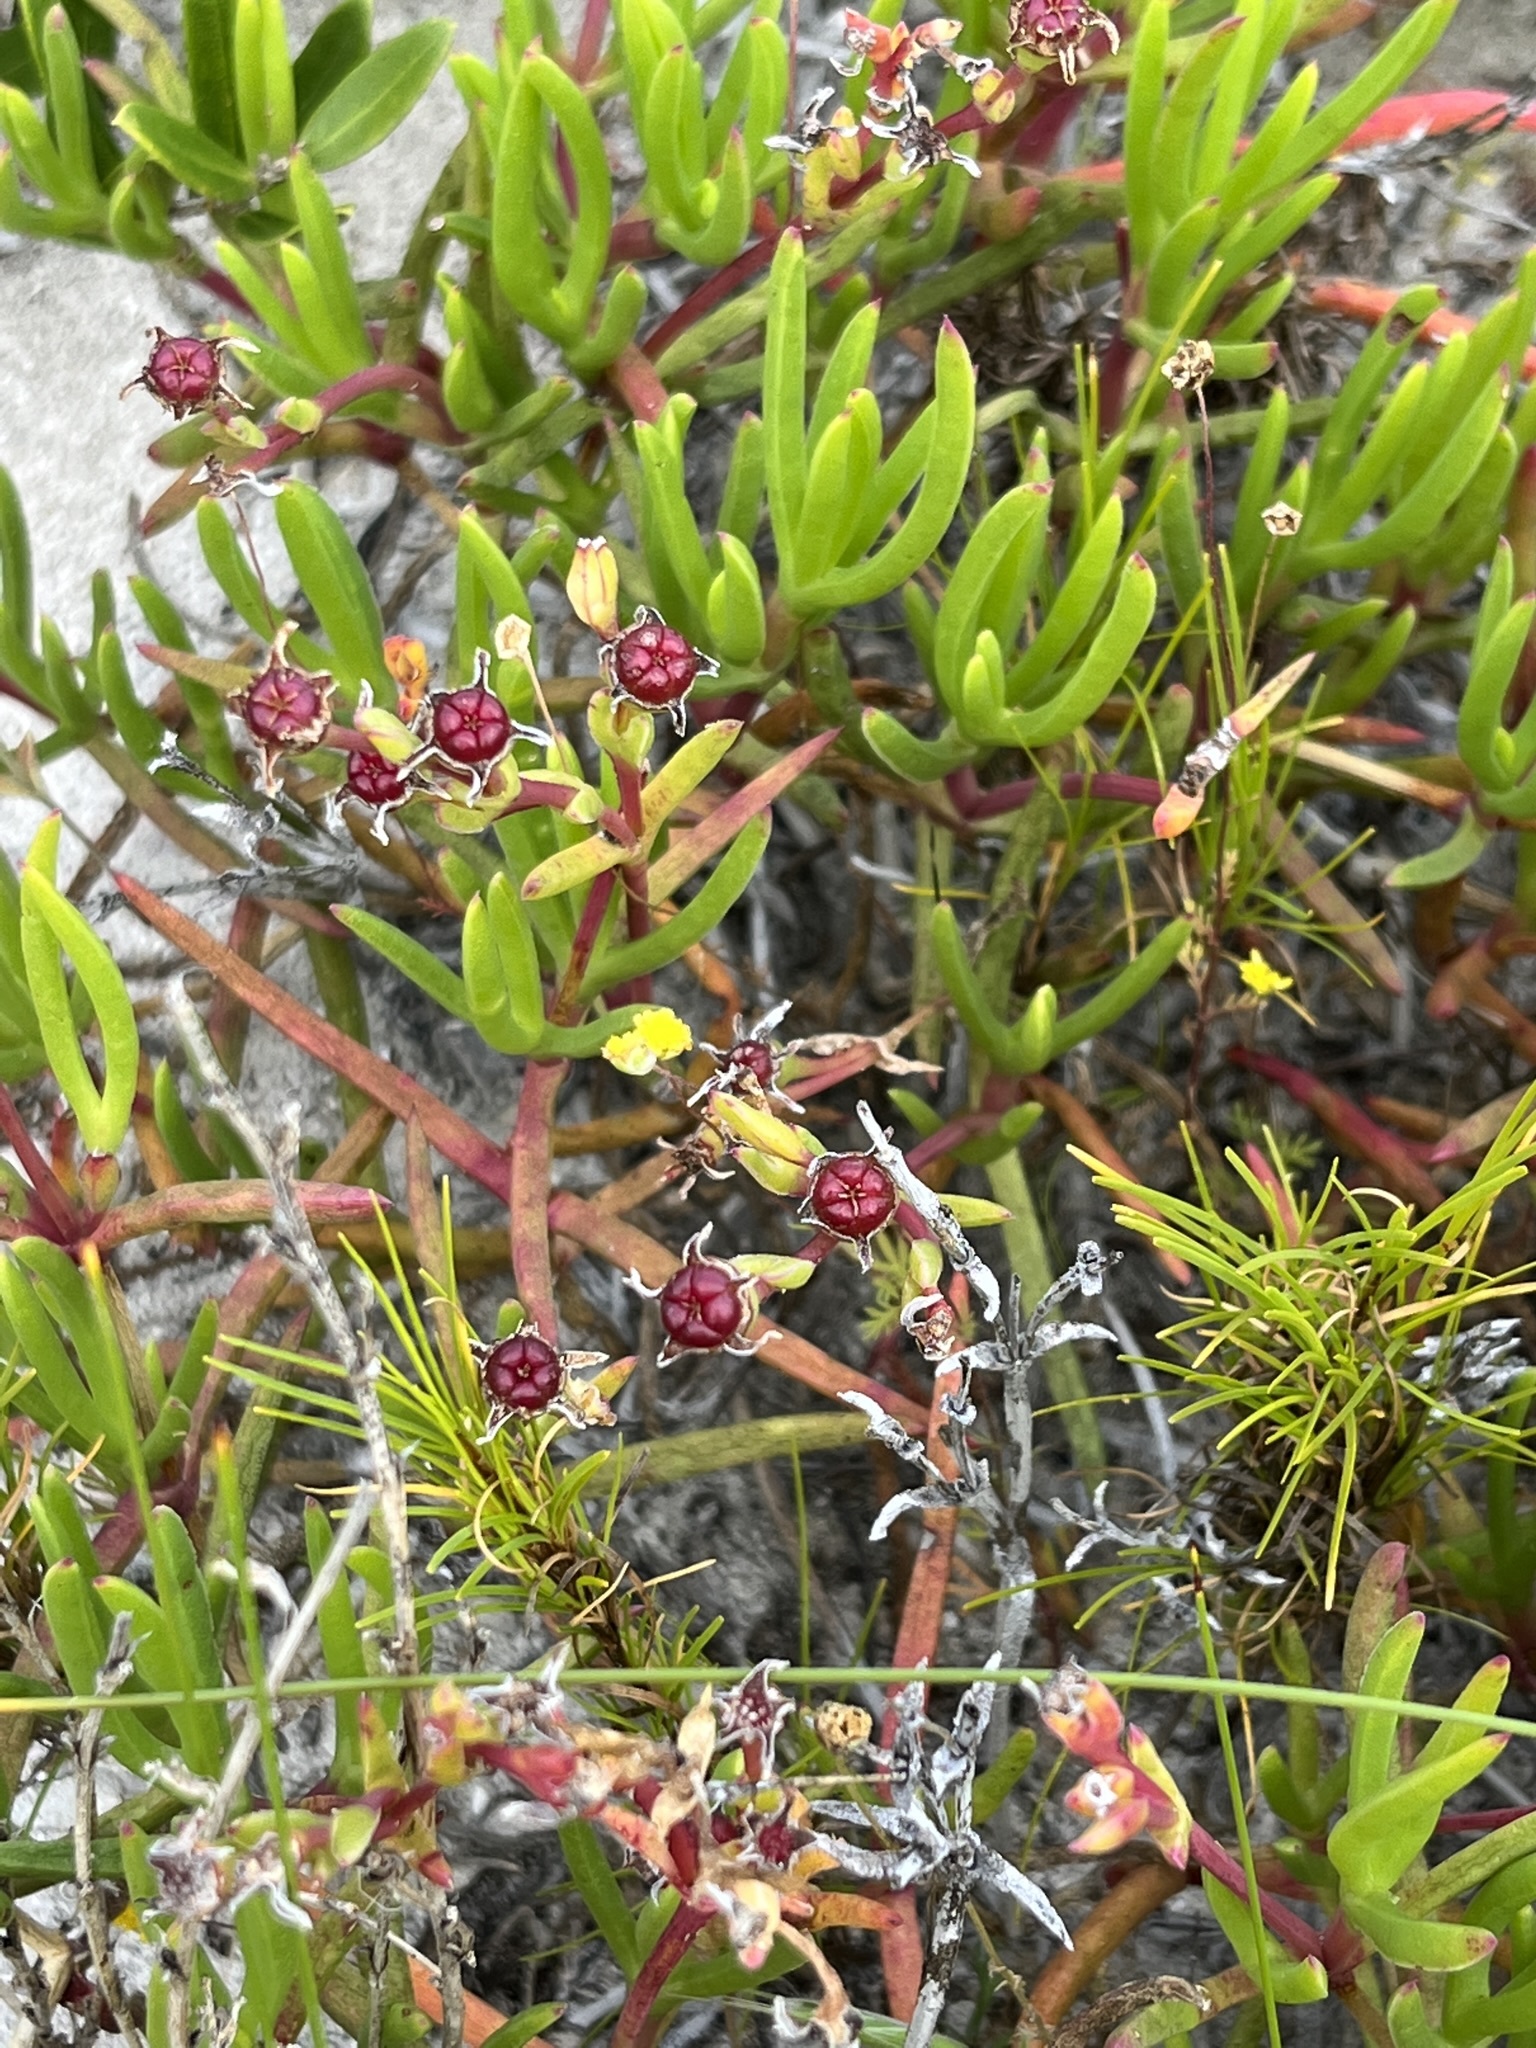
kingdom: Plantae
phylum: Tracheophyta
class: Magnoliopsida
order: Caryophyllales
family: Aizoaceae
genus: Lampranthus
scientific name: Lampranthus fergusoniae
